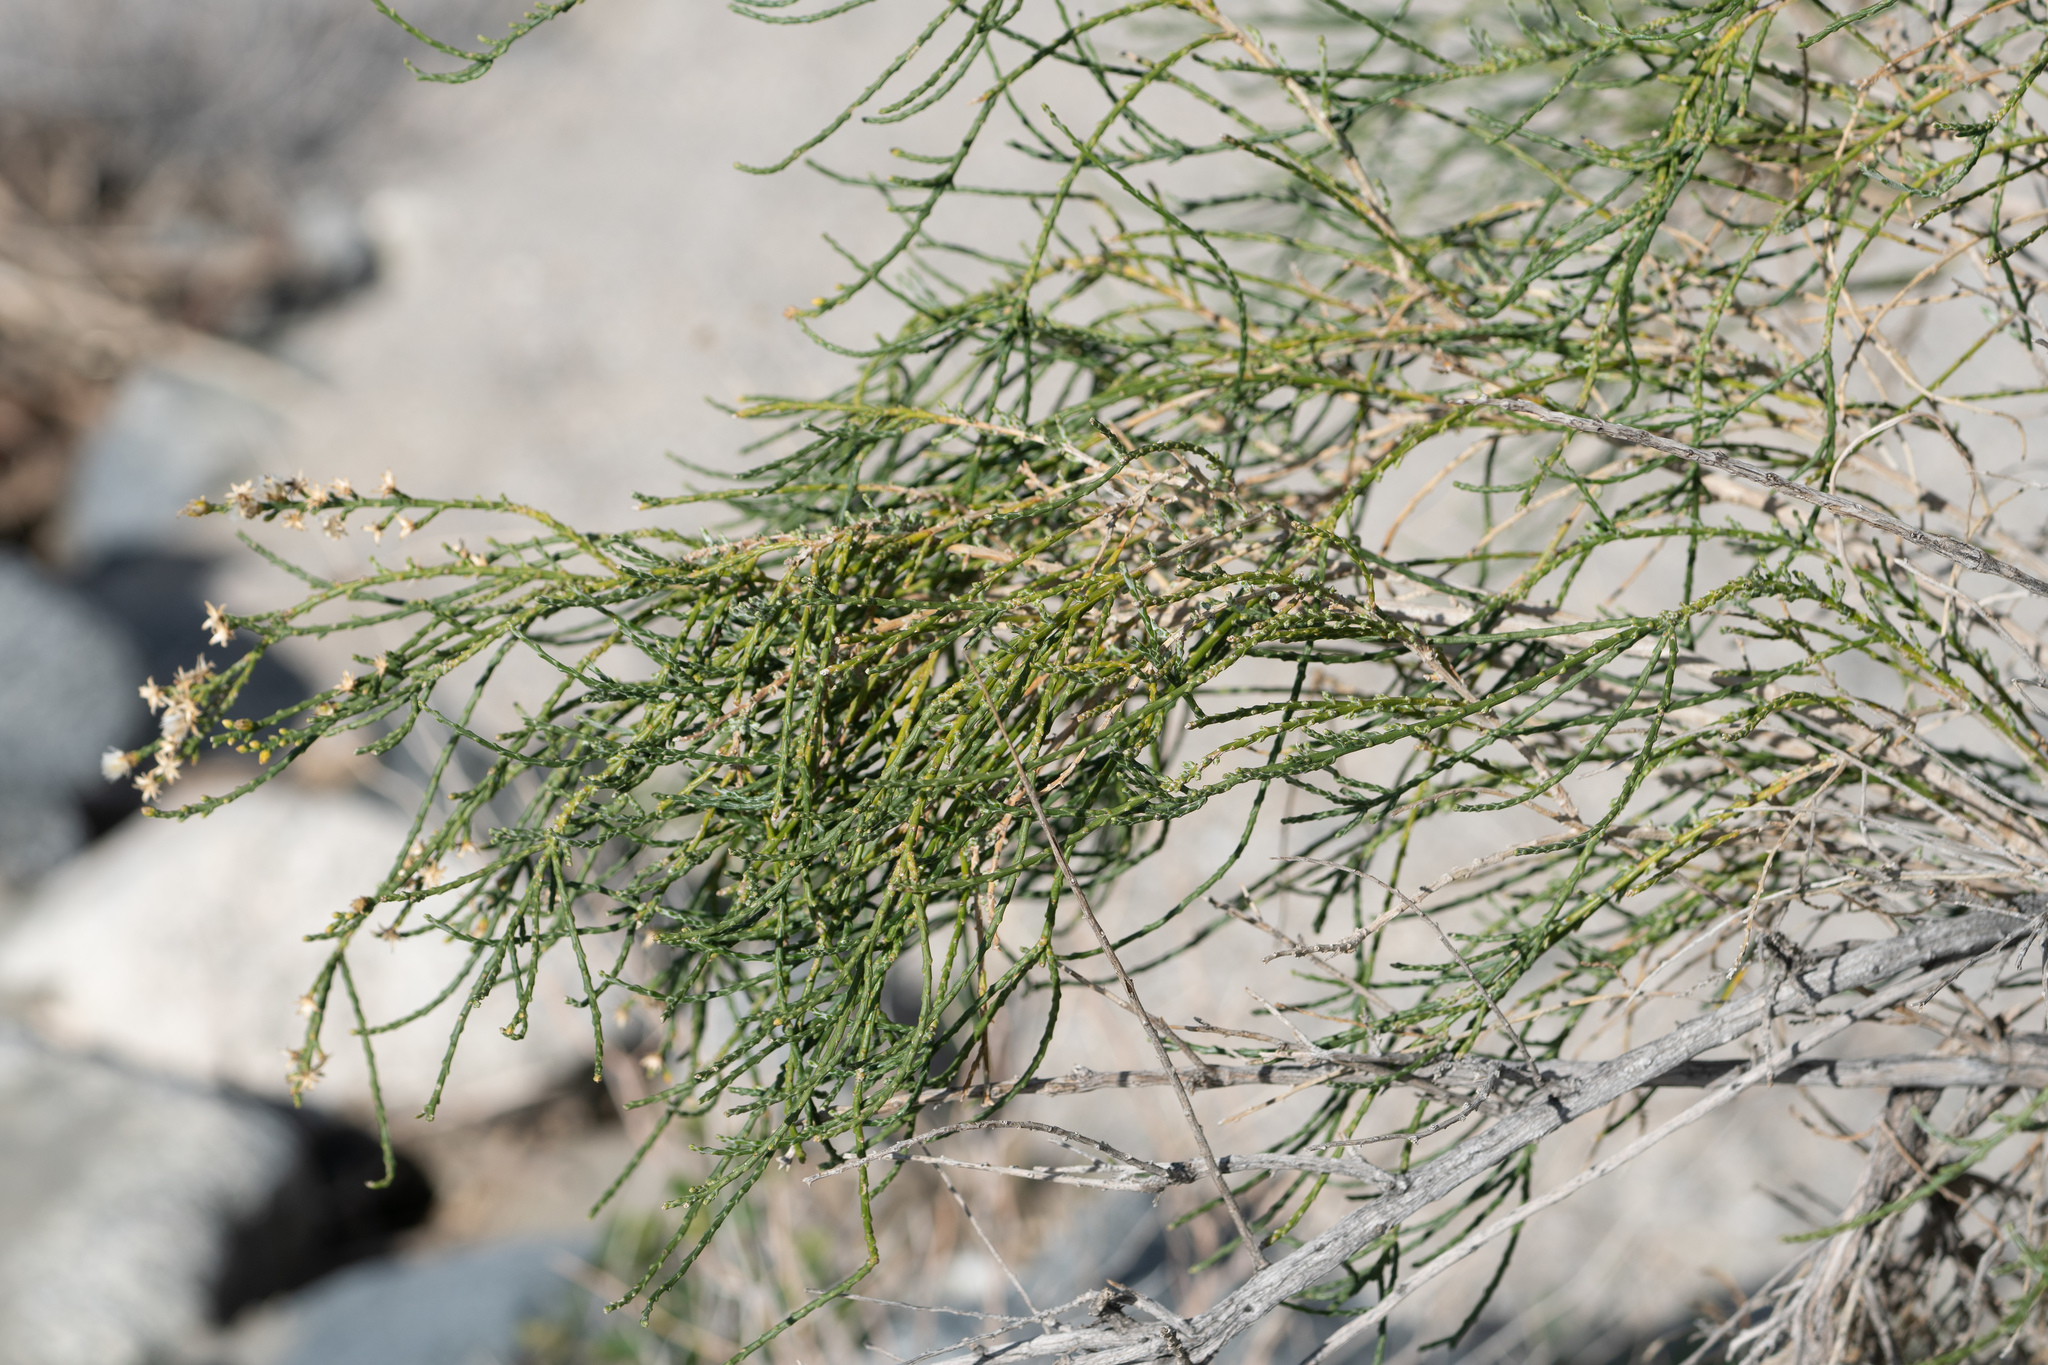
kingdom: Plantae
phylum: Tracheophyta
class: Magnoliopsida
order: Asterales
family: Asteraceae
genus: Lepidospartum
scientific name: Lepidospartum squamatum
